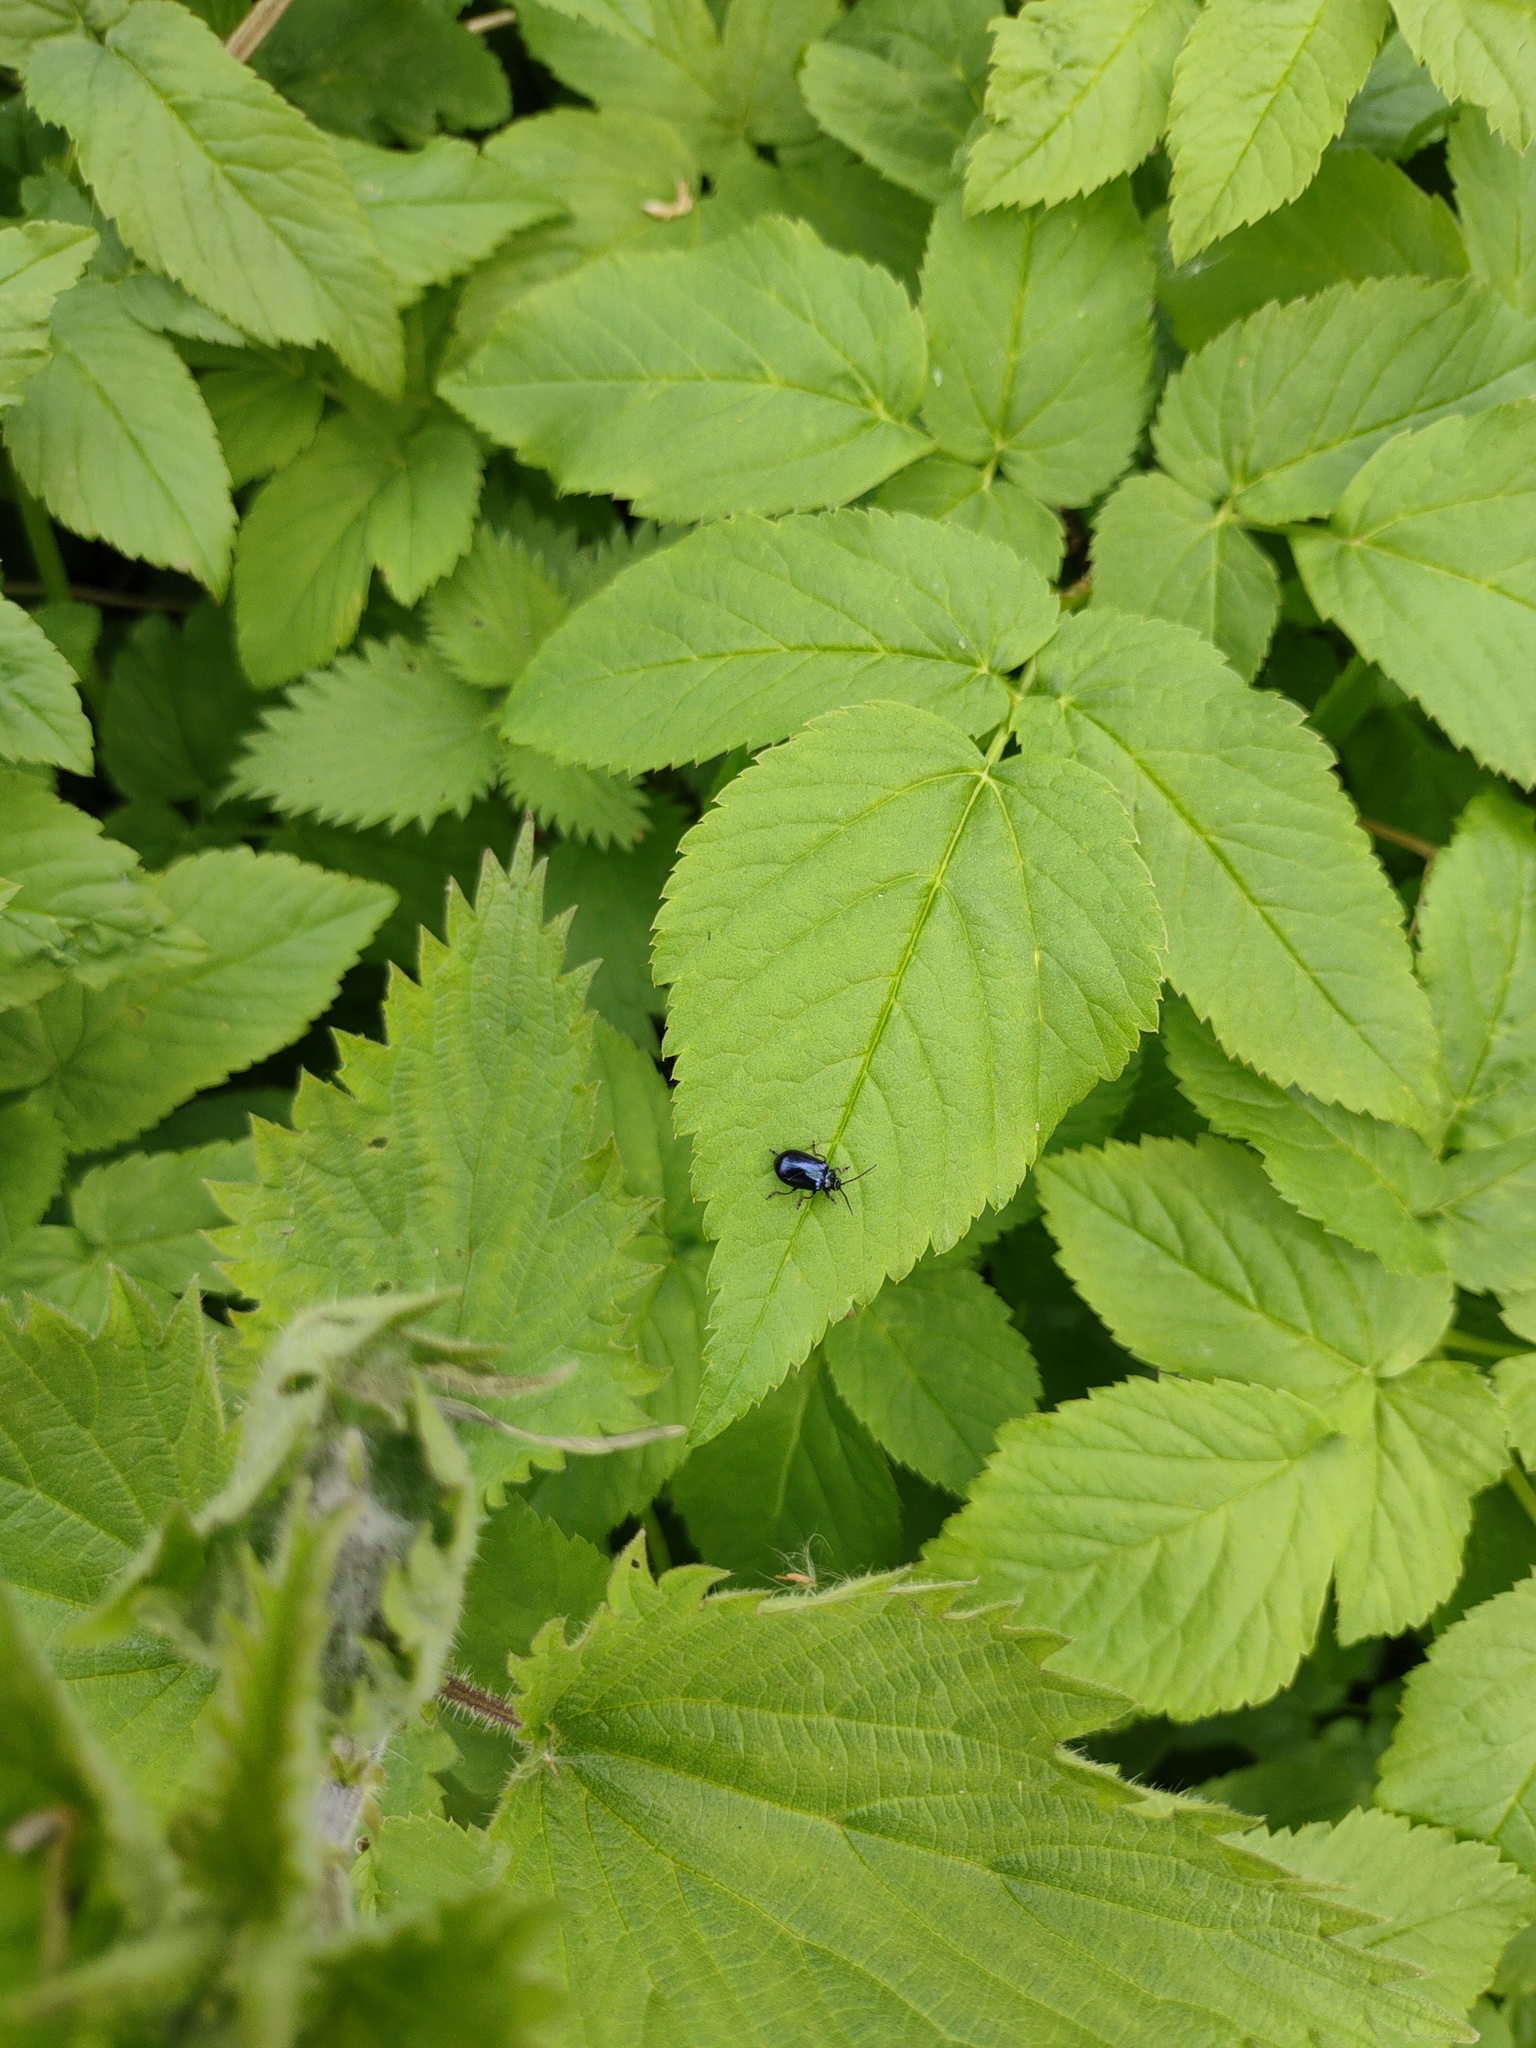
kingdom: Animalia
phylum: Arthropoda
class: Insecta
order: Coleoptera
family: Chrysomelidae
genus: Agelastica
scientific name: Agelastica alni
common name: Alder leaf beetle
